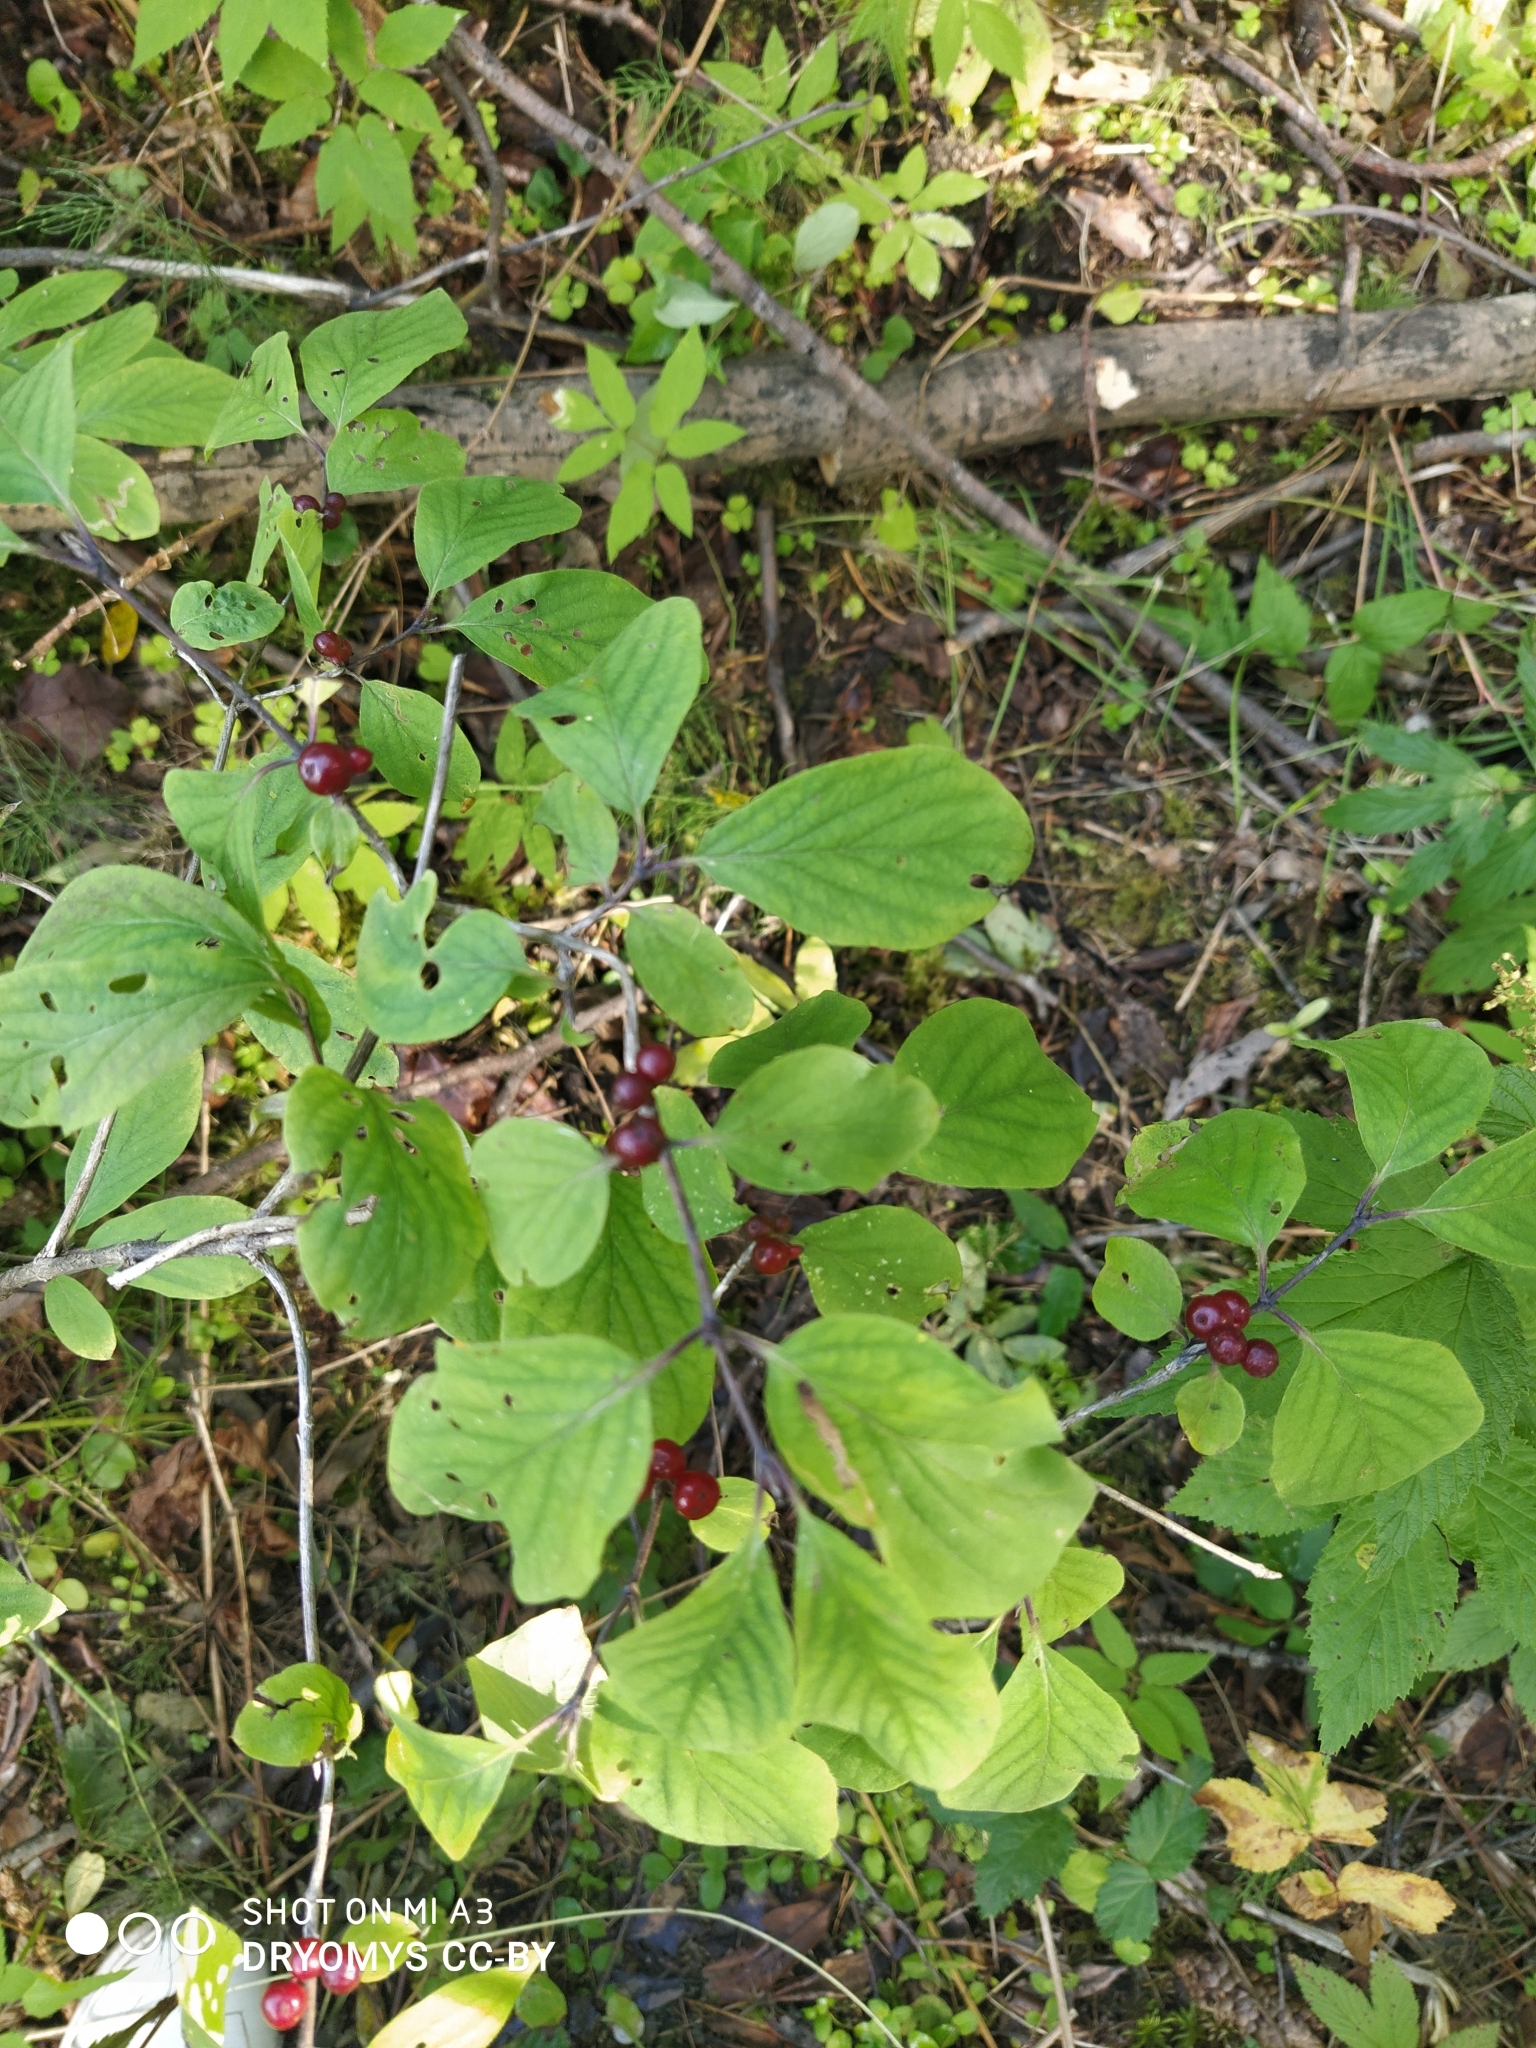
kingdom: Plantae
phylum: Tracheophyta
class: Magnoliopsida
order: Dipsacales
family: Caprifoliaceae
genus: Lonicera
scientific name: Lonicera xylosteum
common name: Fly honeysuckle
